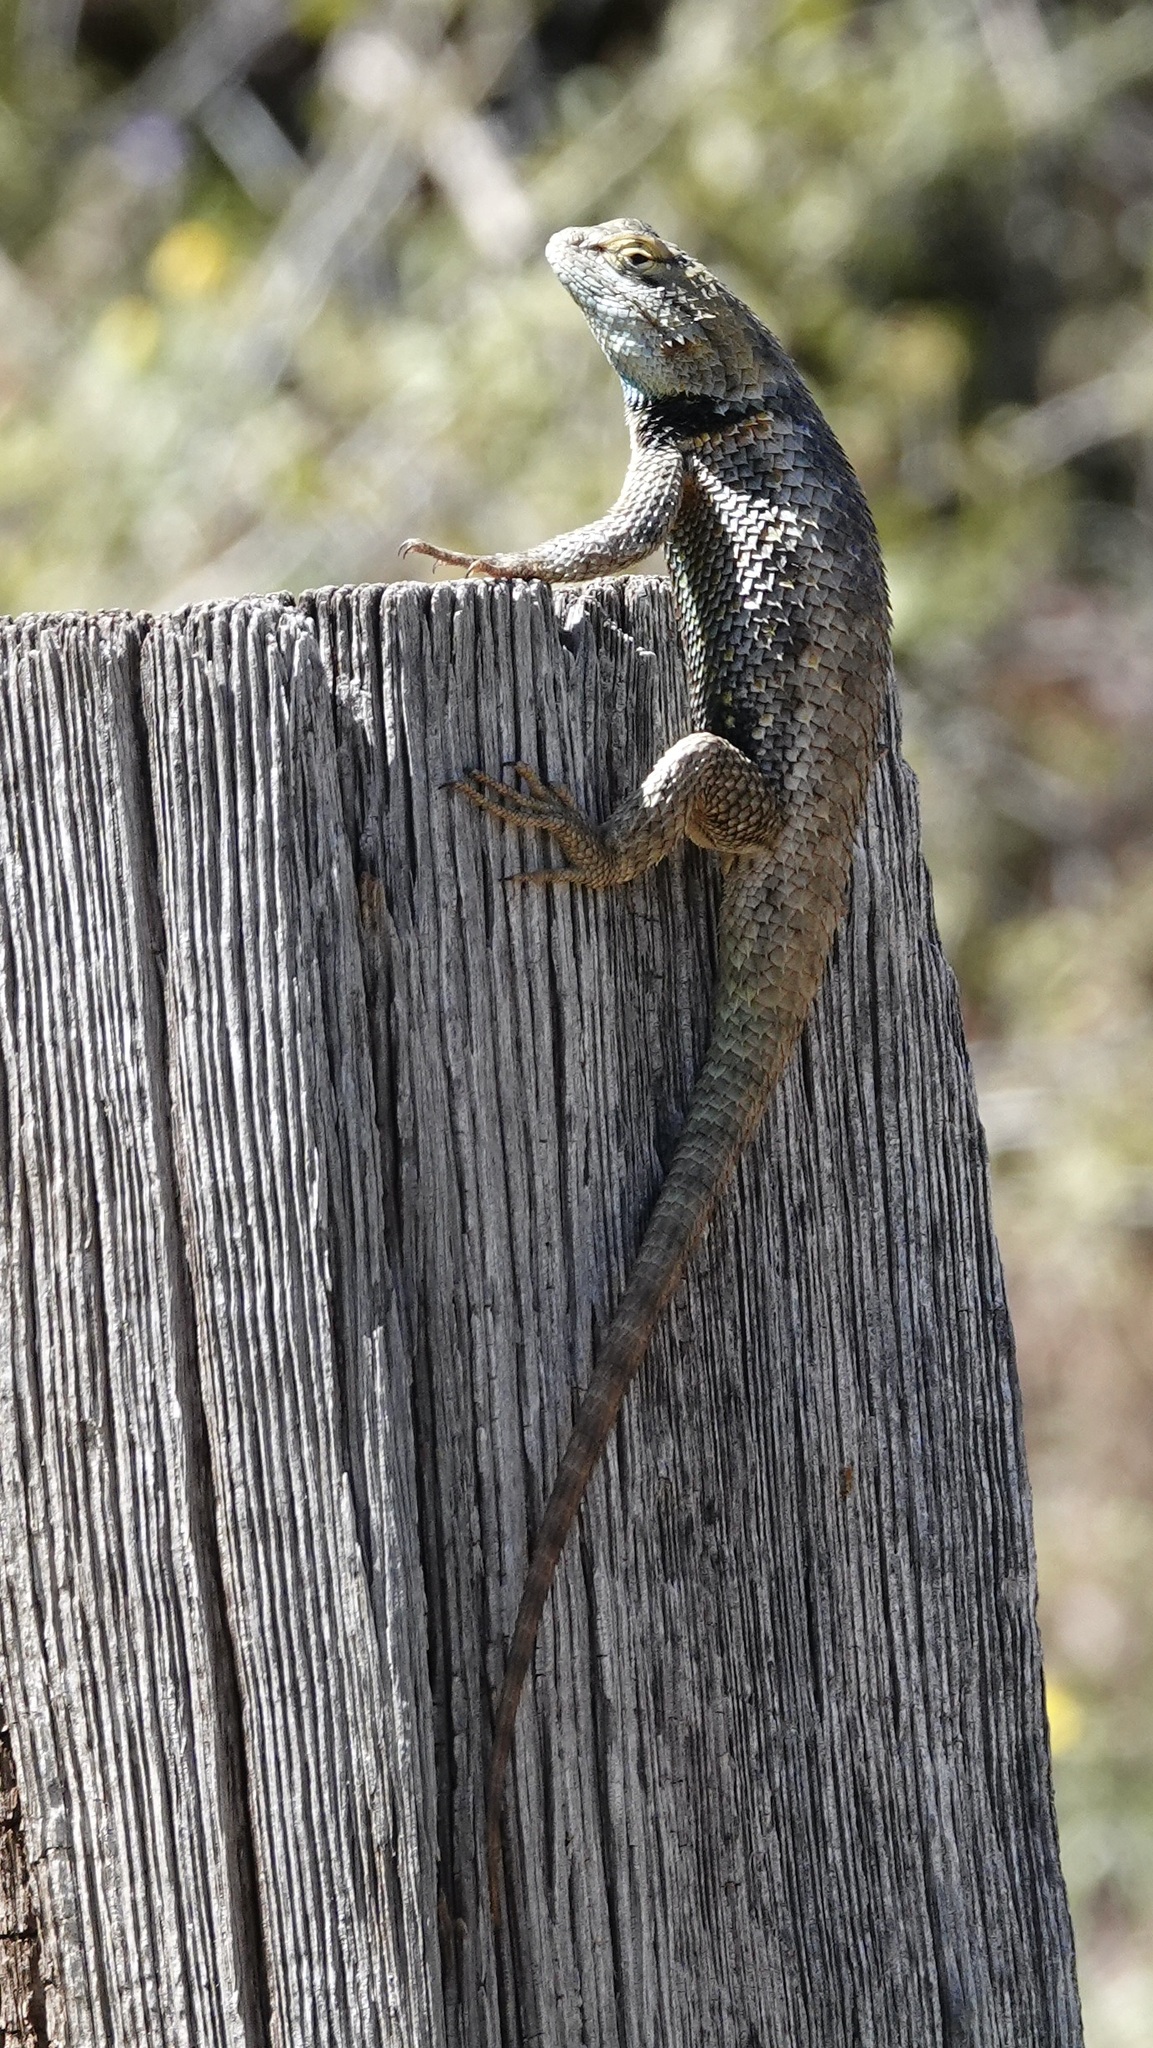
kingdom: Animalia
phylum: Chordata
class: Squamata
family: Phrynosomatidae
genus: Sceloporus
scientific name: Sceloporus magister
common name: Desert spiny lizard
